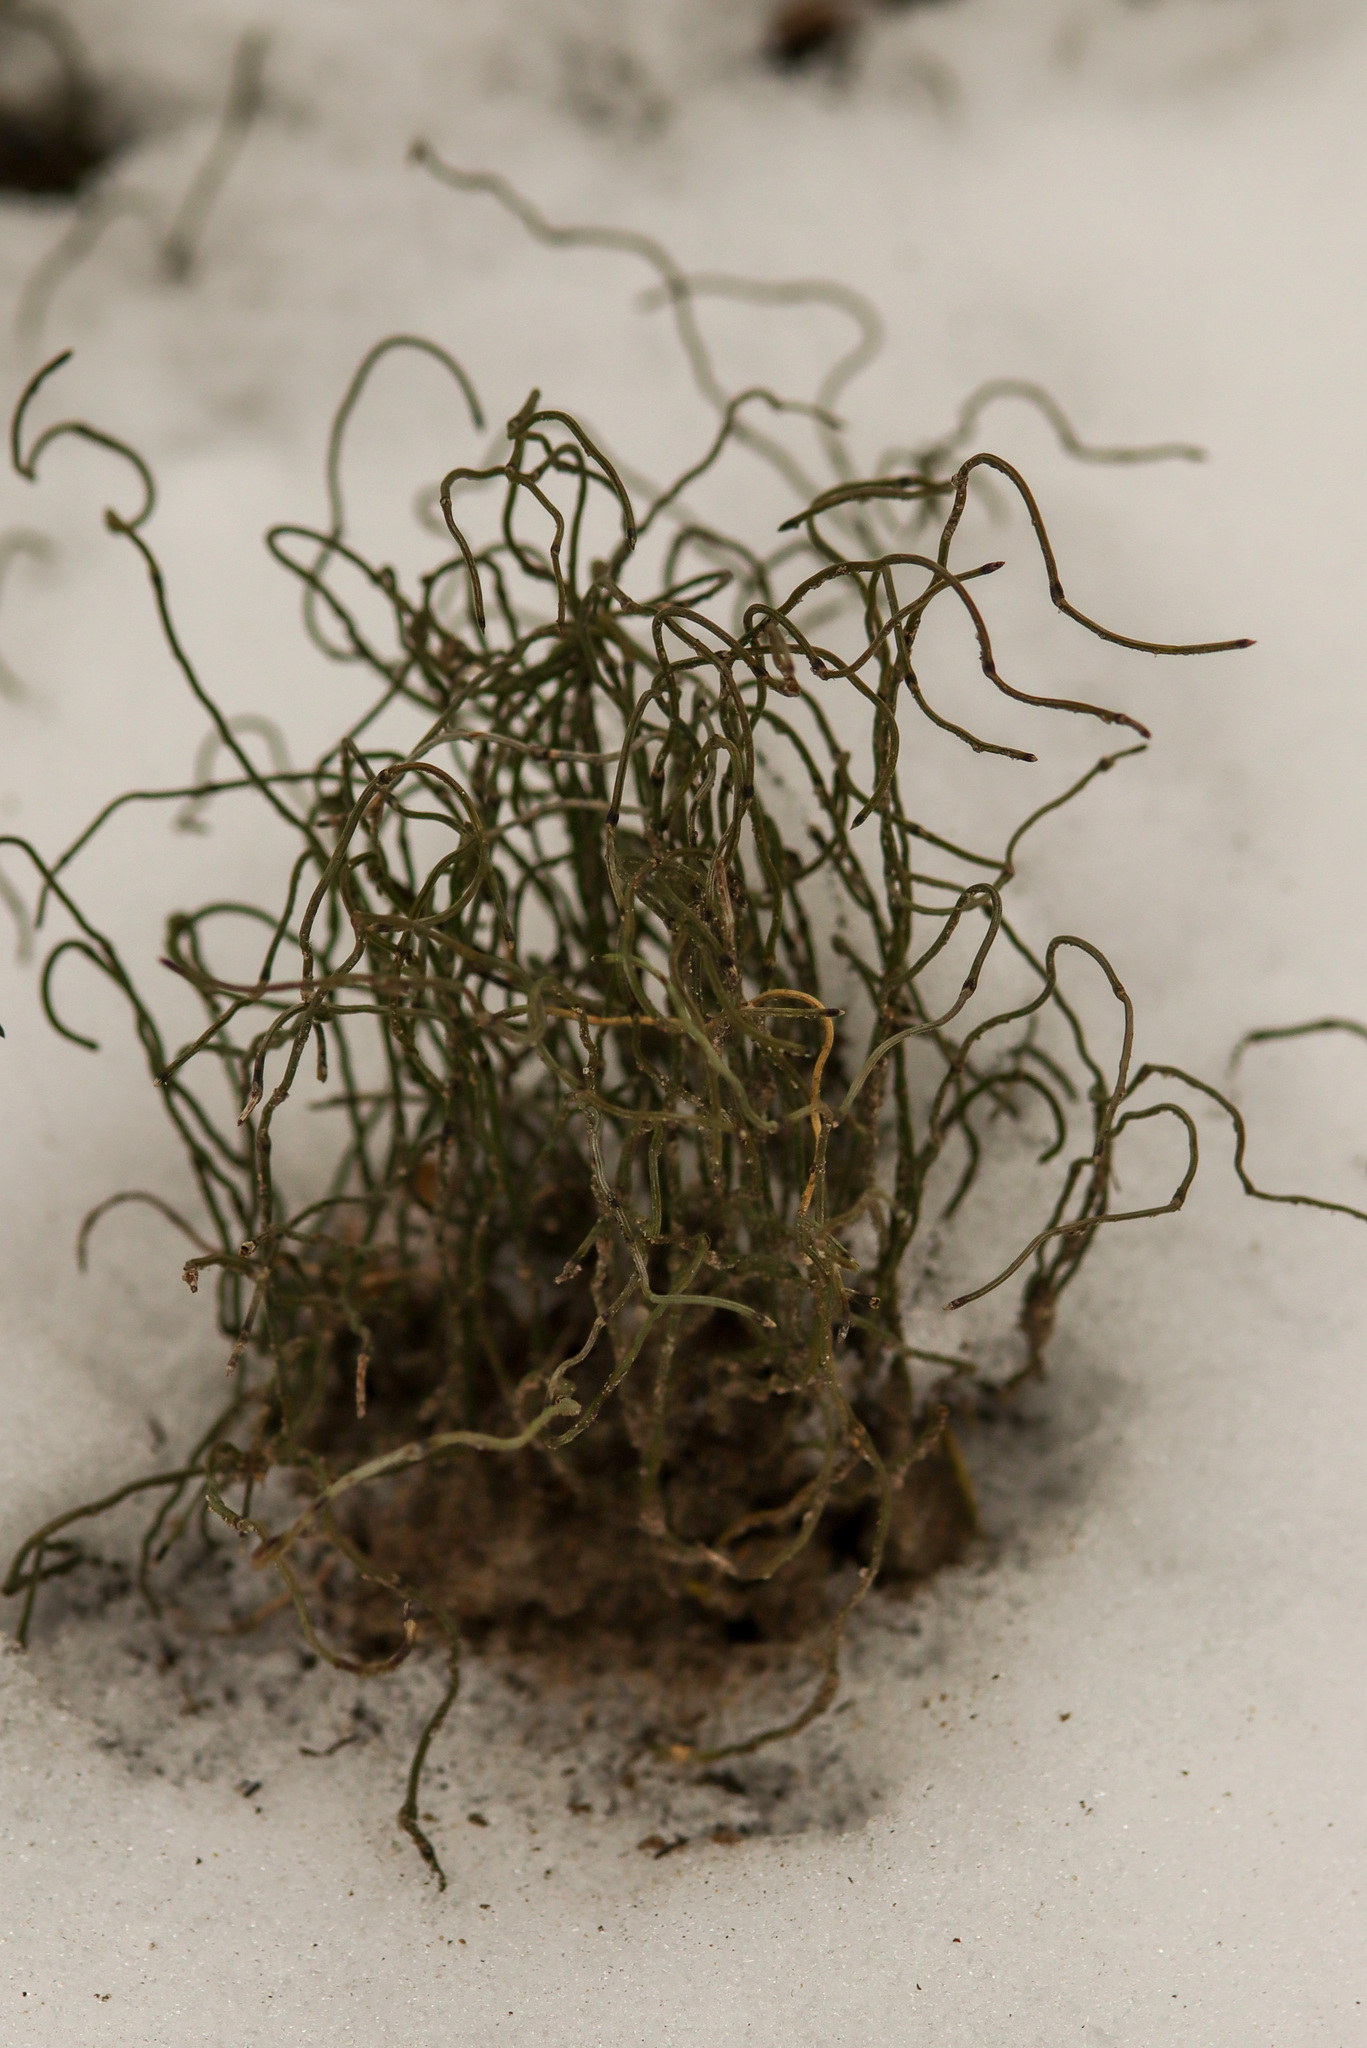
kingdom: Plantae
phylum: Tracheophyta
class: Polypodiopsida
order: Equisetales
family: Equisetaceae
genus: Equisetum
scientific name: Equisetum scirpoides
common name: Delicate horsetail
